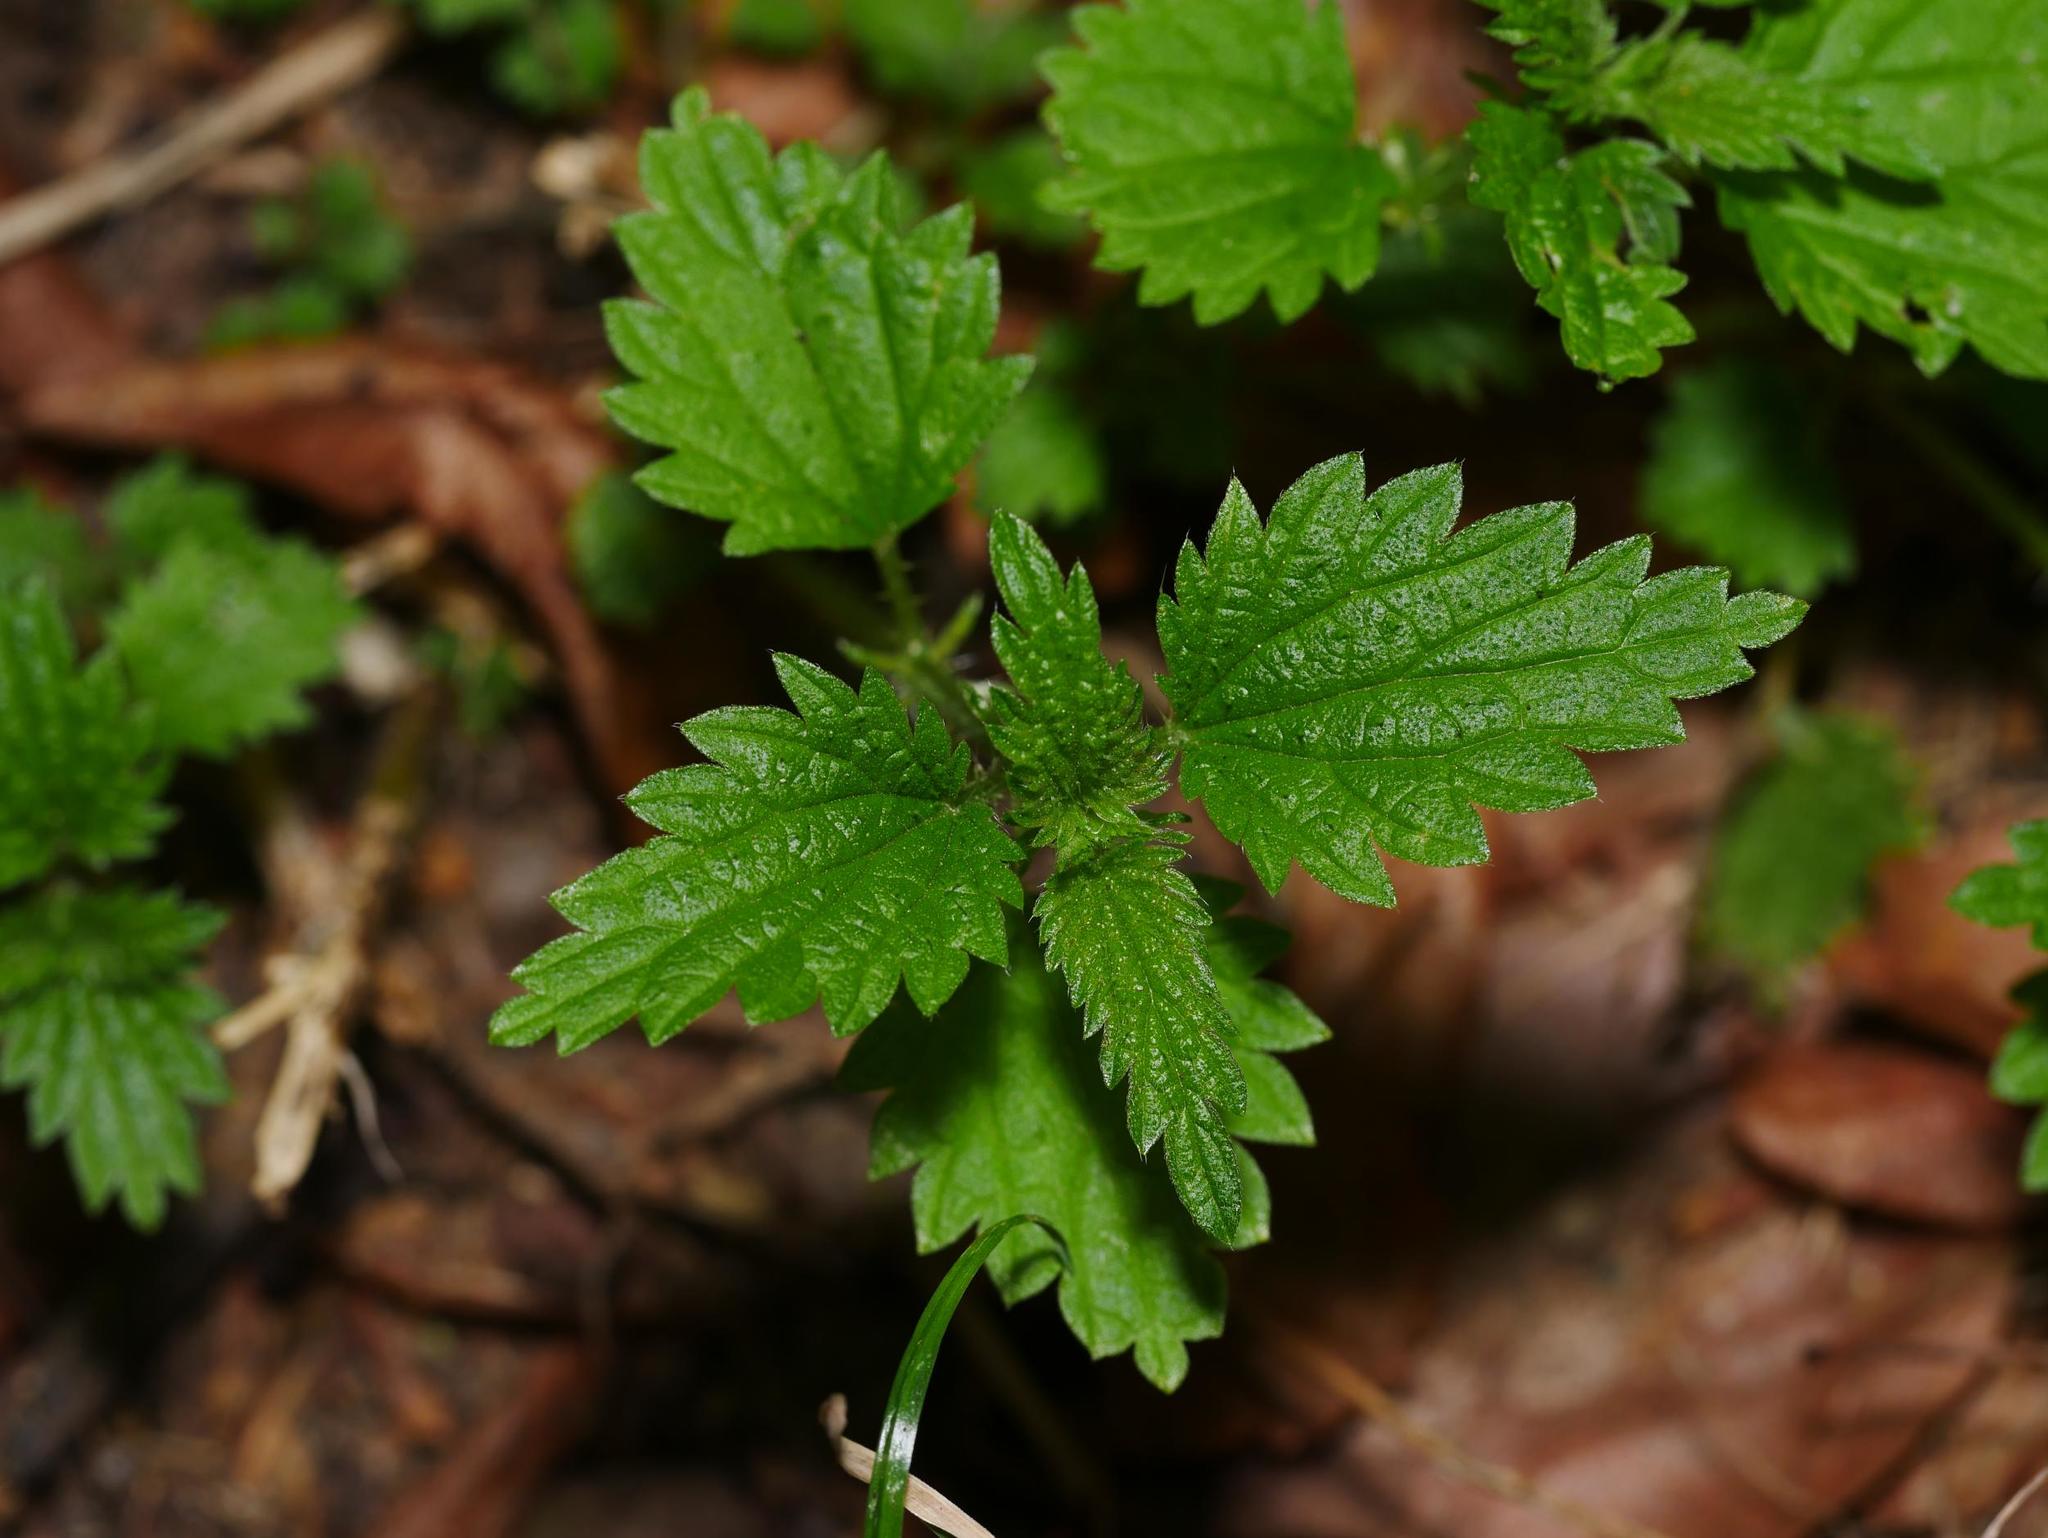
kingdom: Plantae
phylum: Tracheophyta
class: Magnoliopsida
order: Rosales
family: Urticaceae
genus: Urtica
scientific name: Urtica urens
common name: Dwarf nettle
